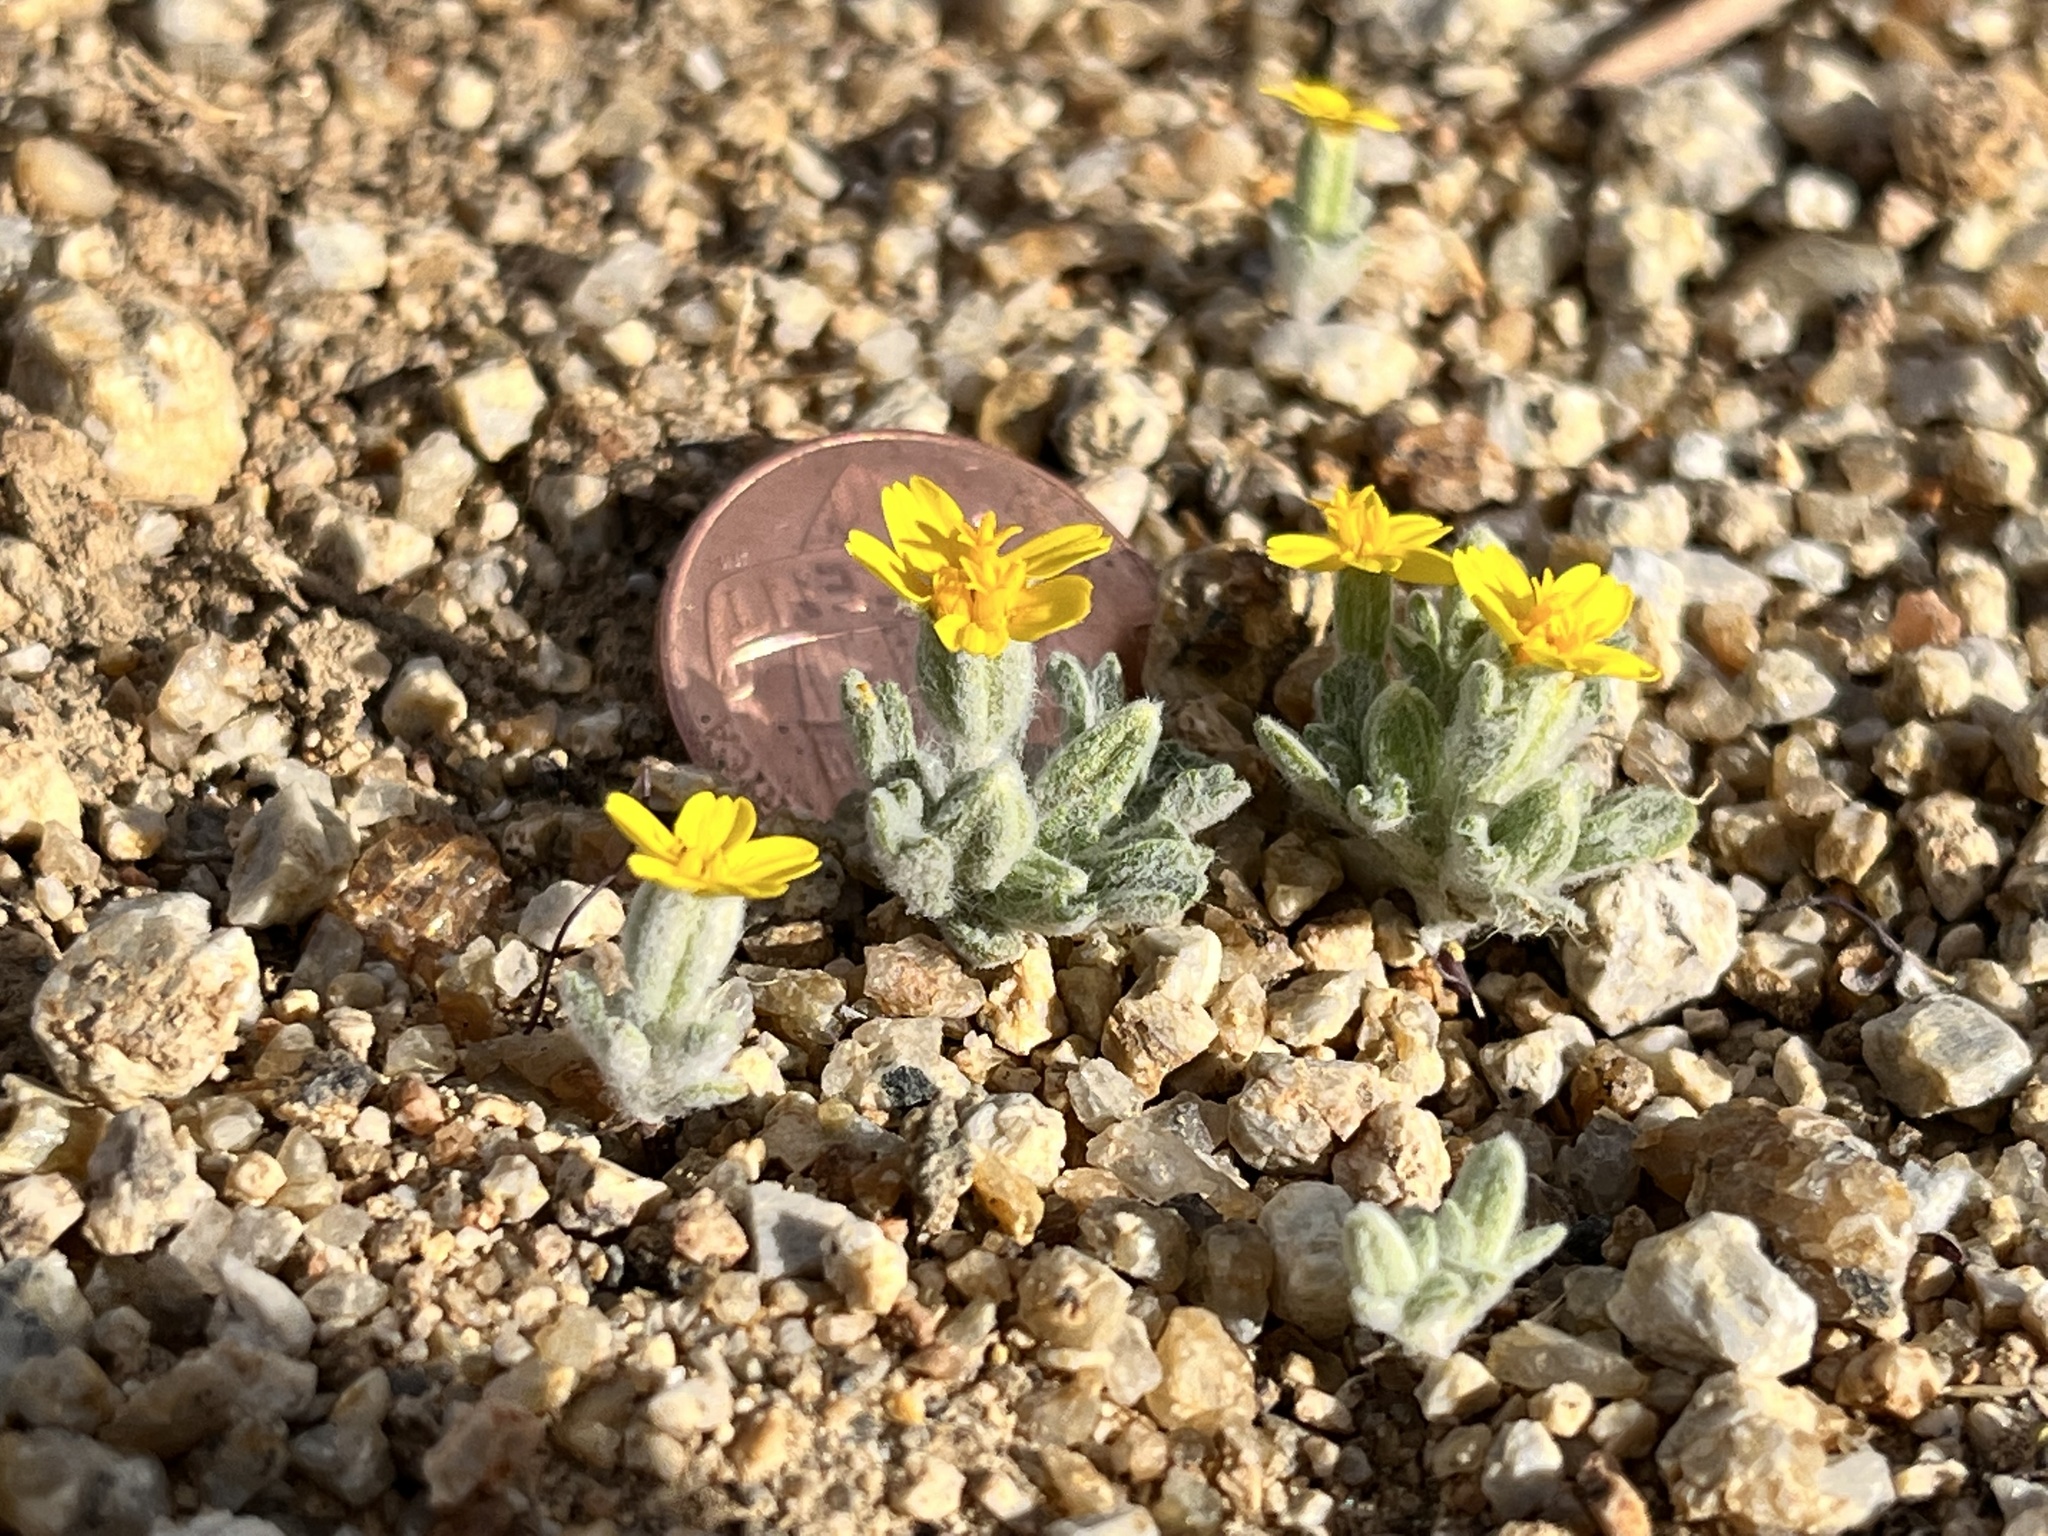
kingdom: Plantae
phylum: Tracheophyta
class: Magnoliopsida
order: Asterales
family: Asteraceae
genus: Eriophyllum
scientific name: Eriophyllum wallacei
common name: Wallace's woolly daisy
